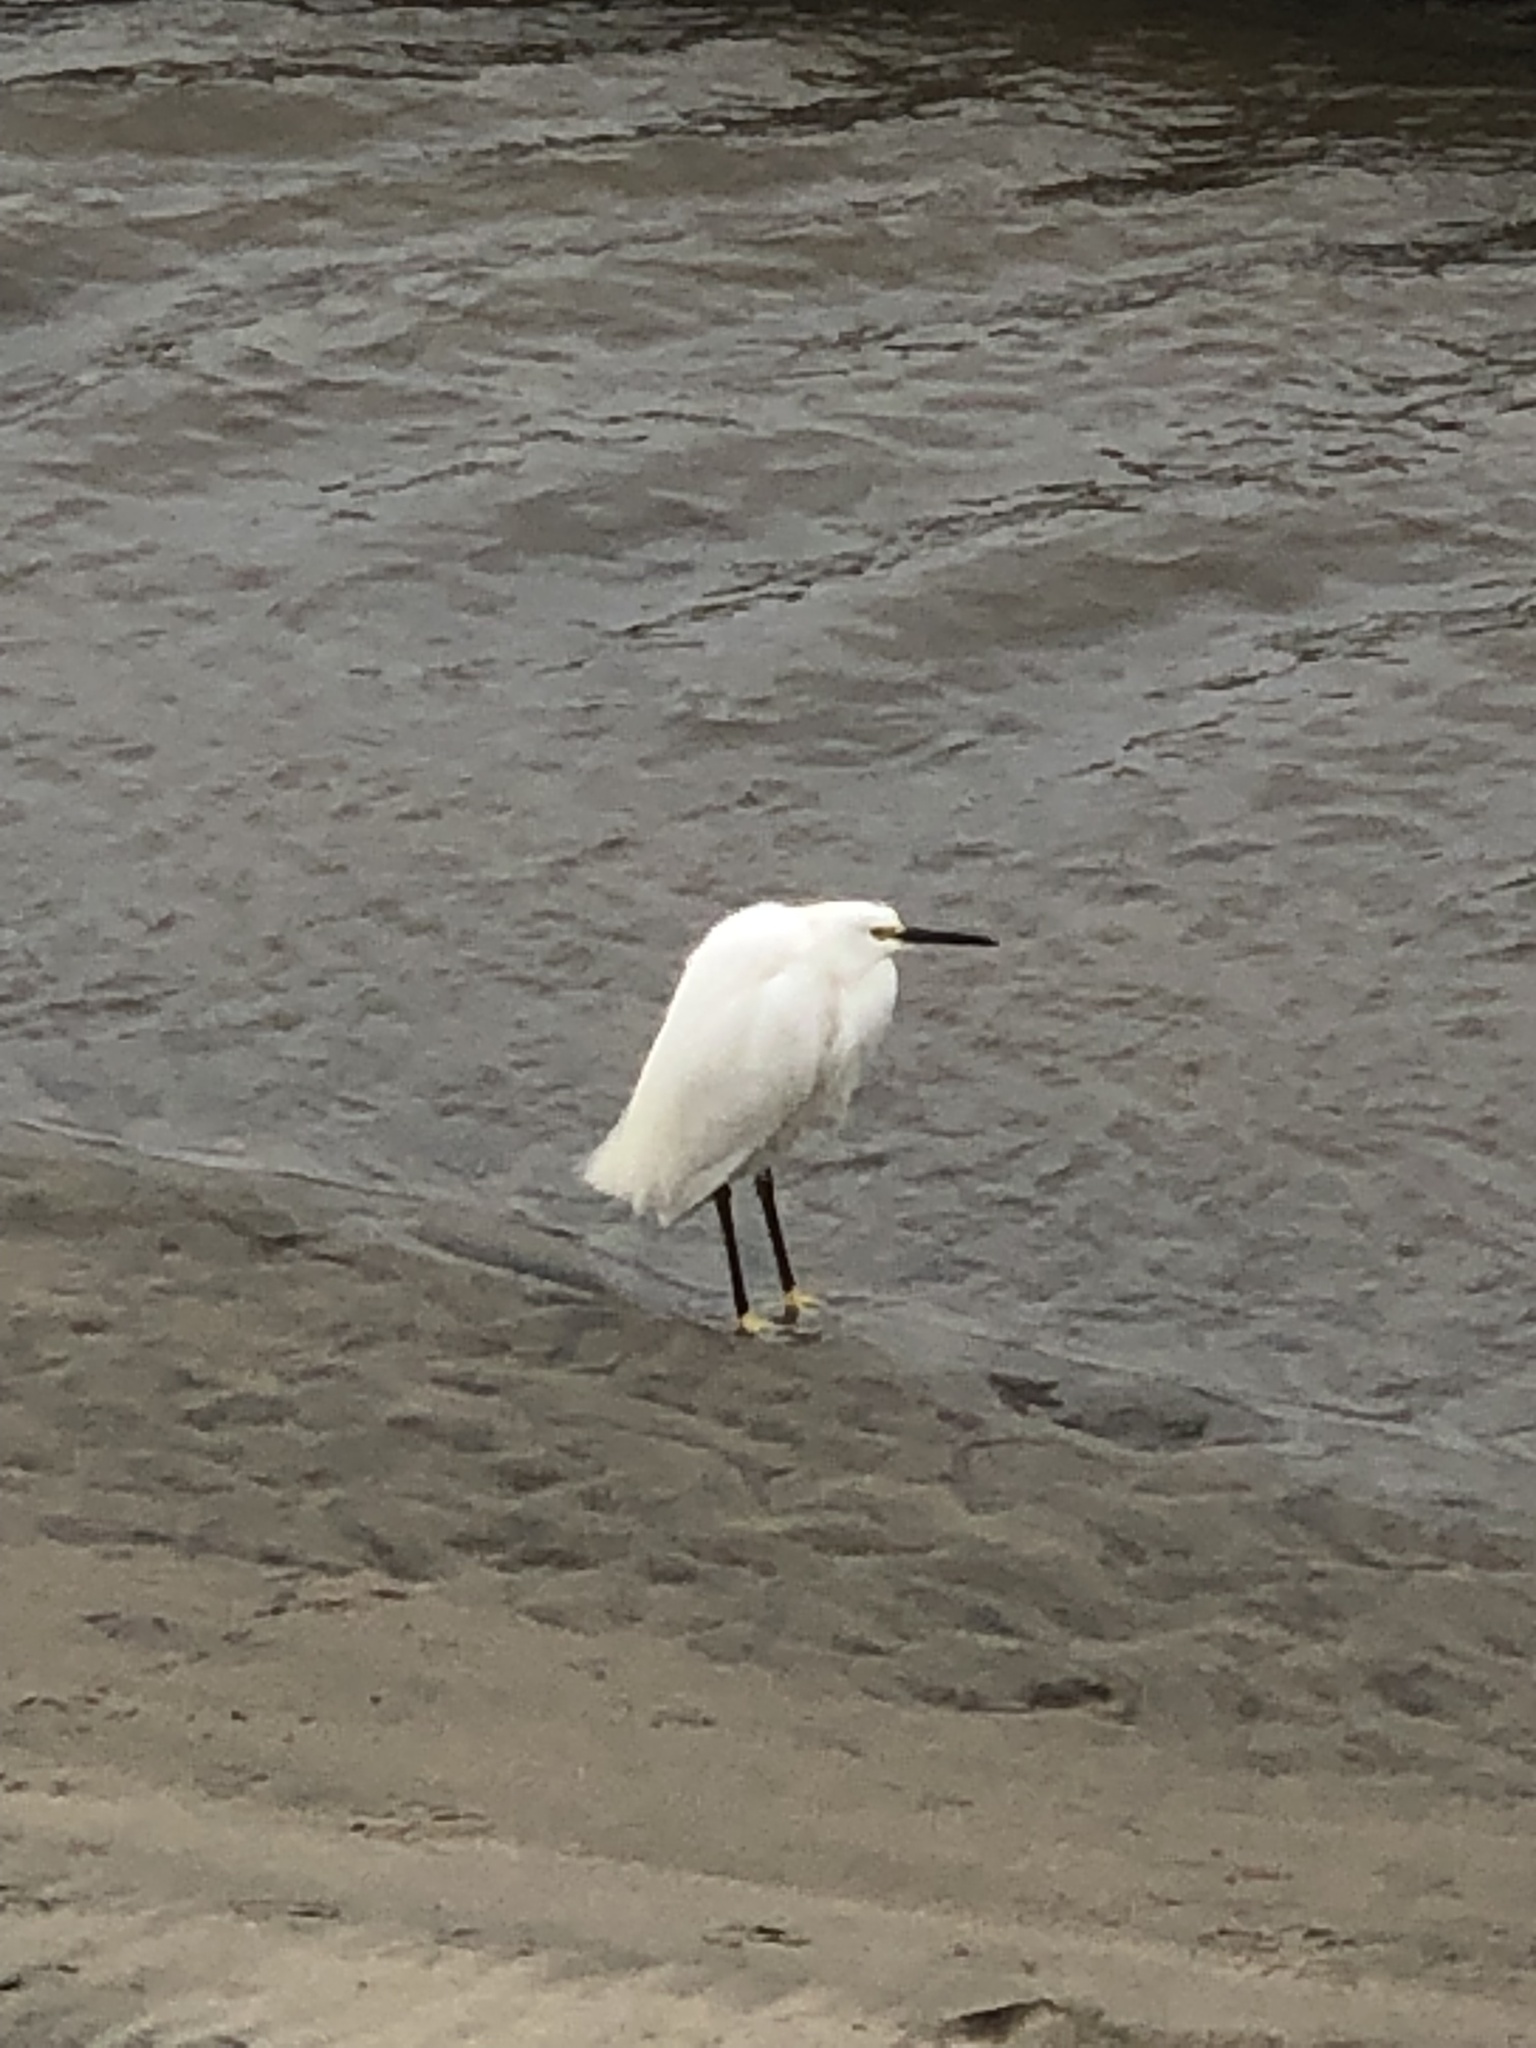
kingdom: Animalia
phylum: Chordata
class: Aves
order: Pelecaniformes
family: Ardeidae
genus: Egretta
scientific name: Egretta thula
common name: Snowy egret
